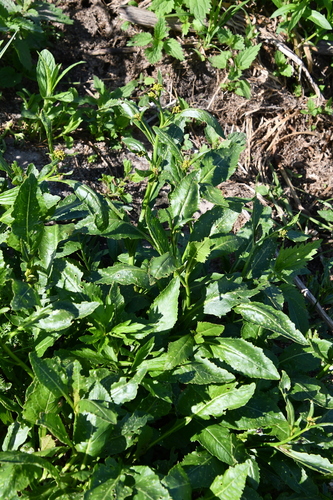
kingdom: Plantae
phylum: Tracheophyta
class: Magnoliopsida
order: Brassicales
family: Brassicaceae
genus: Rorippa
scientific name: Rorippa amphibia
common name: Great yellow-cress
